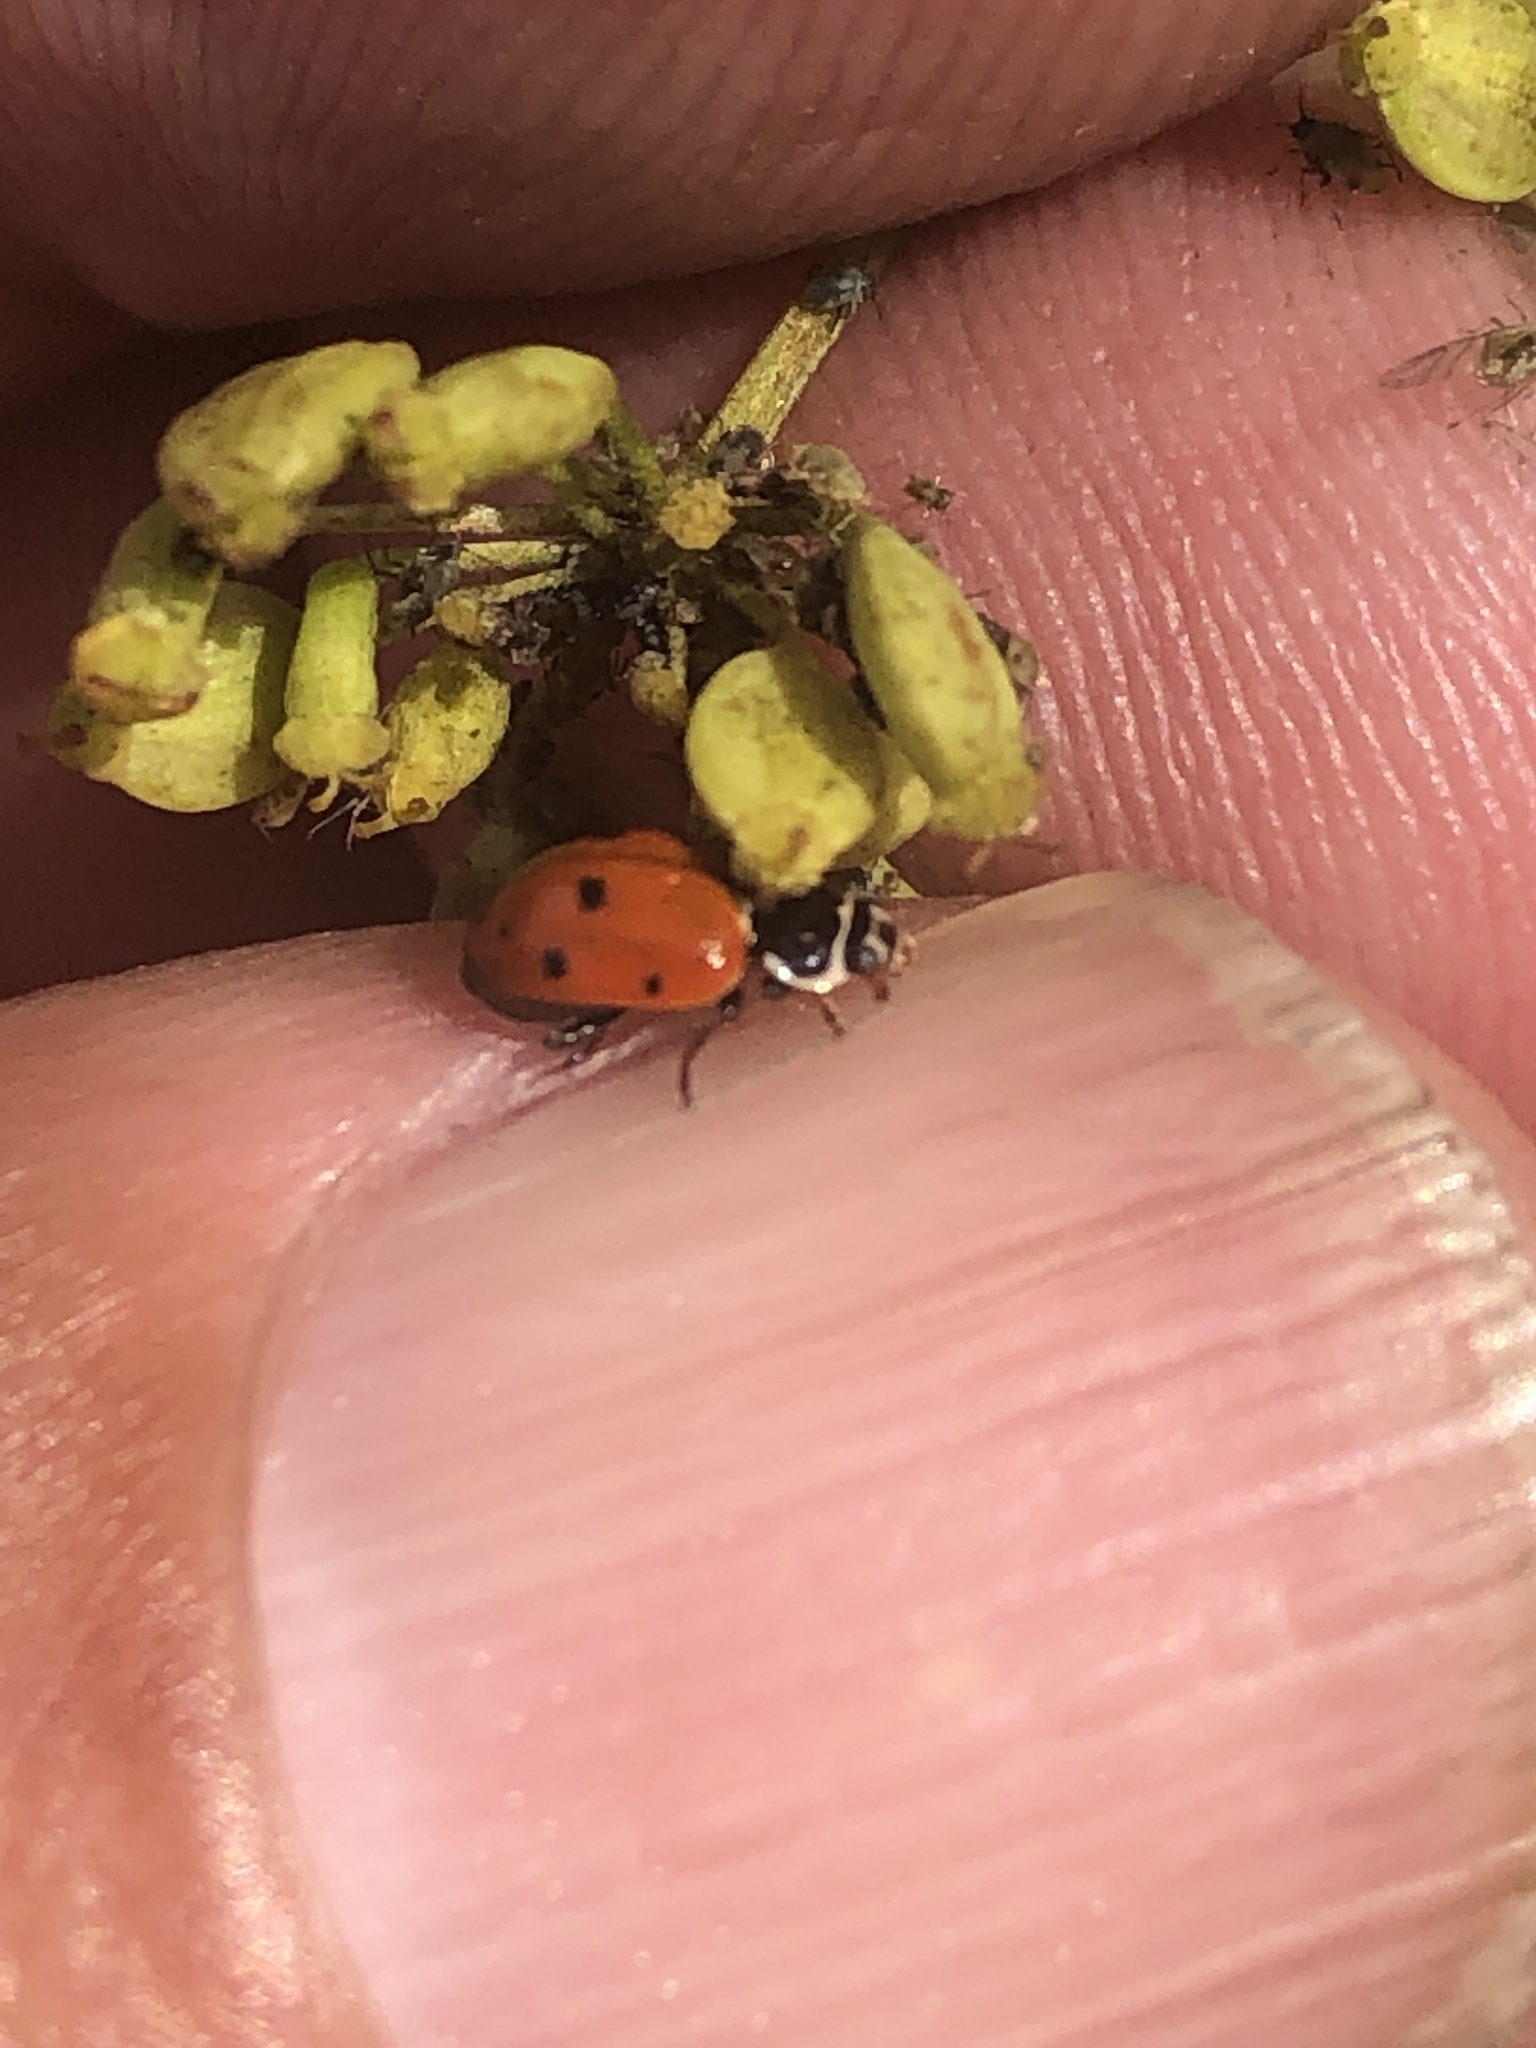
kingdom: Animalia
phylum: Arthropoda
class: Insecta
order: Coleoptera
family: Coccinellidae
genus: Hippodamia
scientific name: Hippodamia variegata
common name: Ladybird beetle
